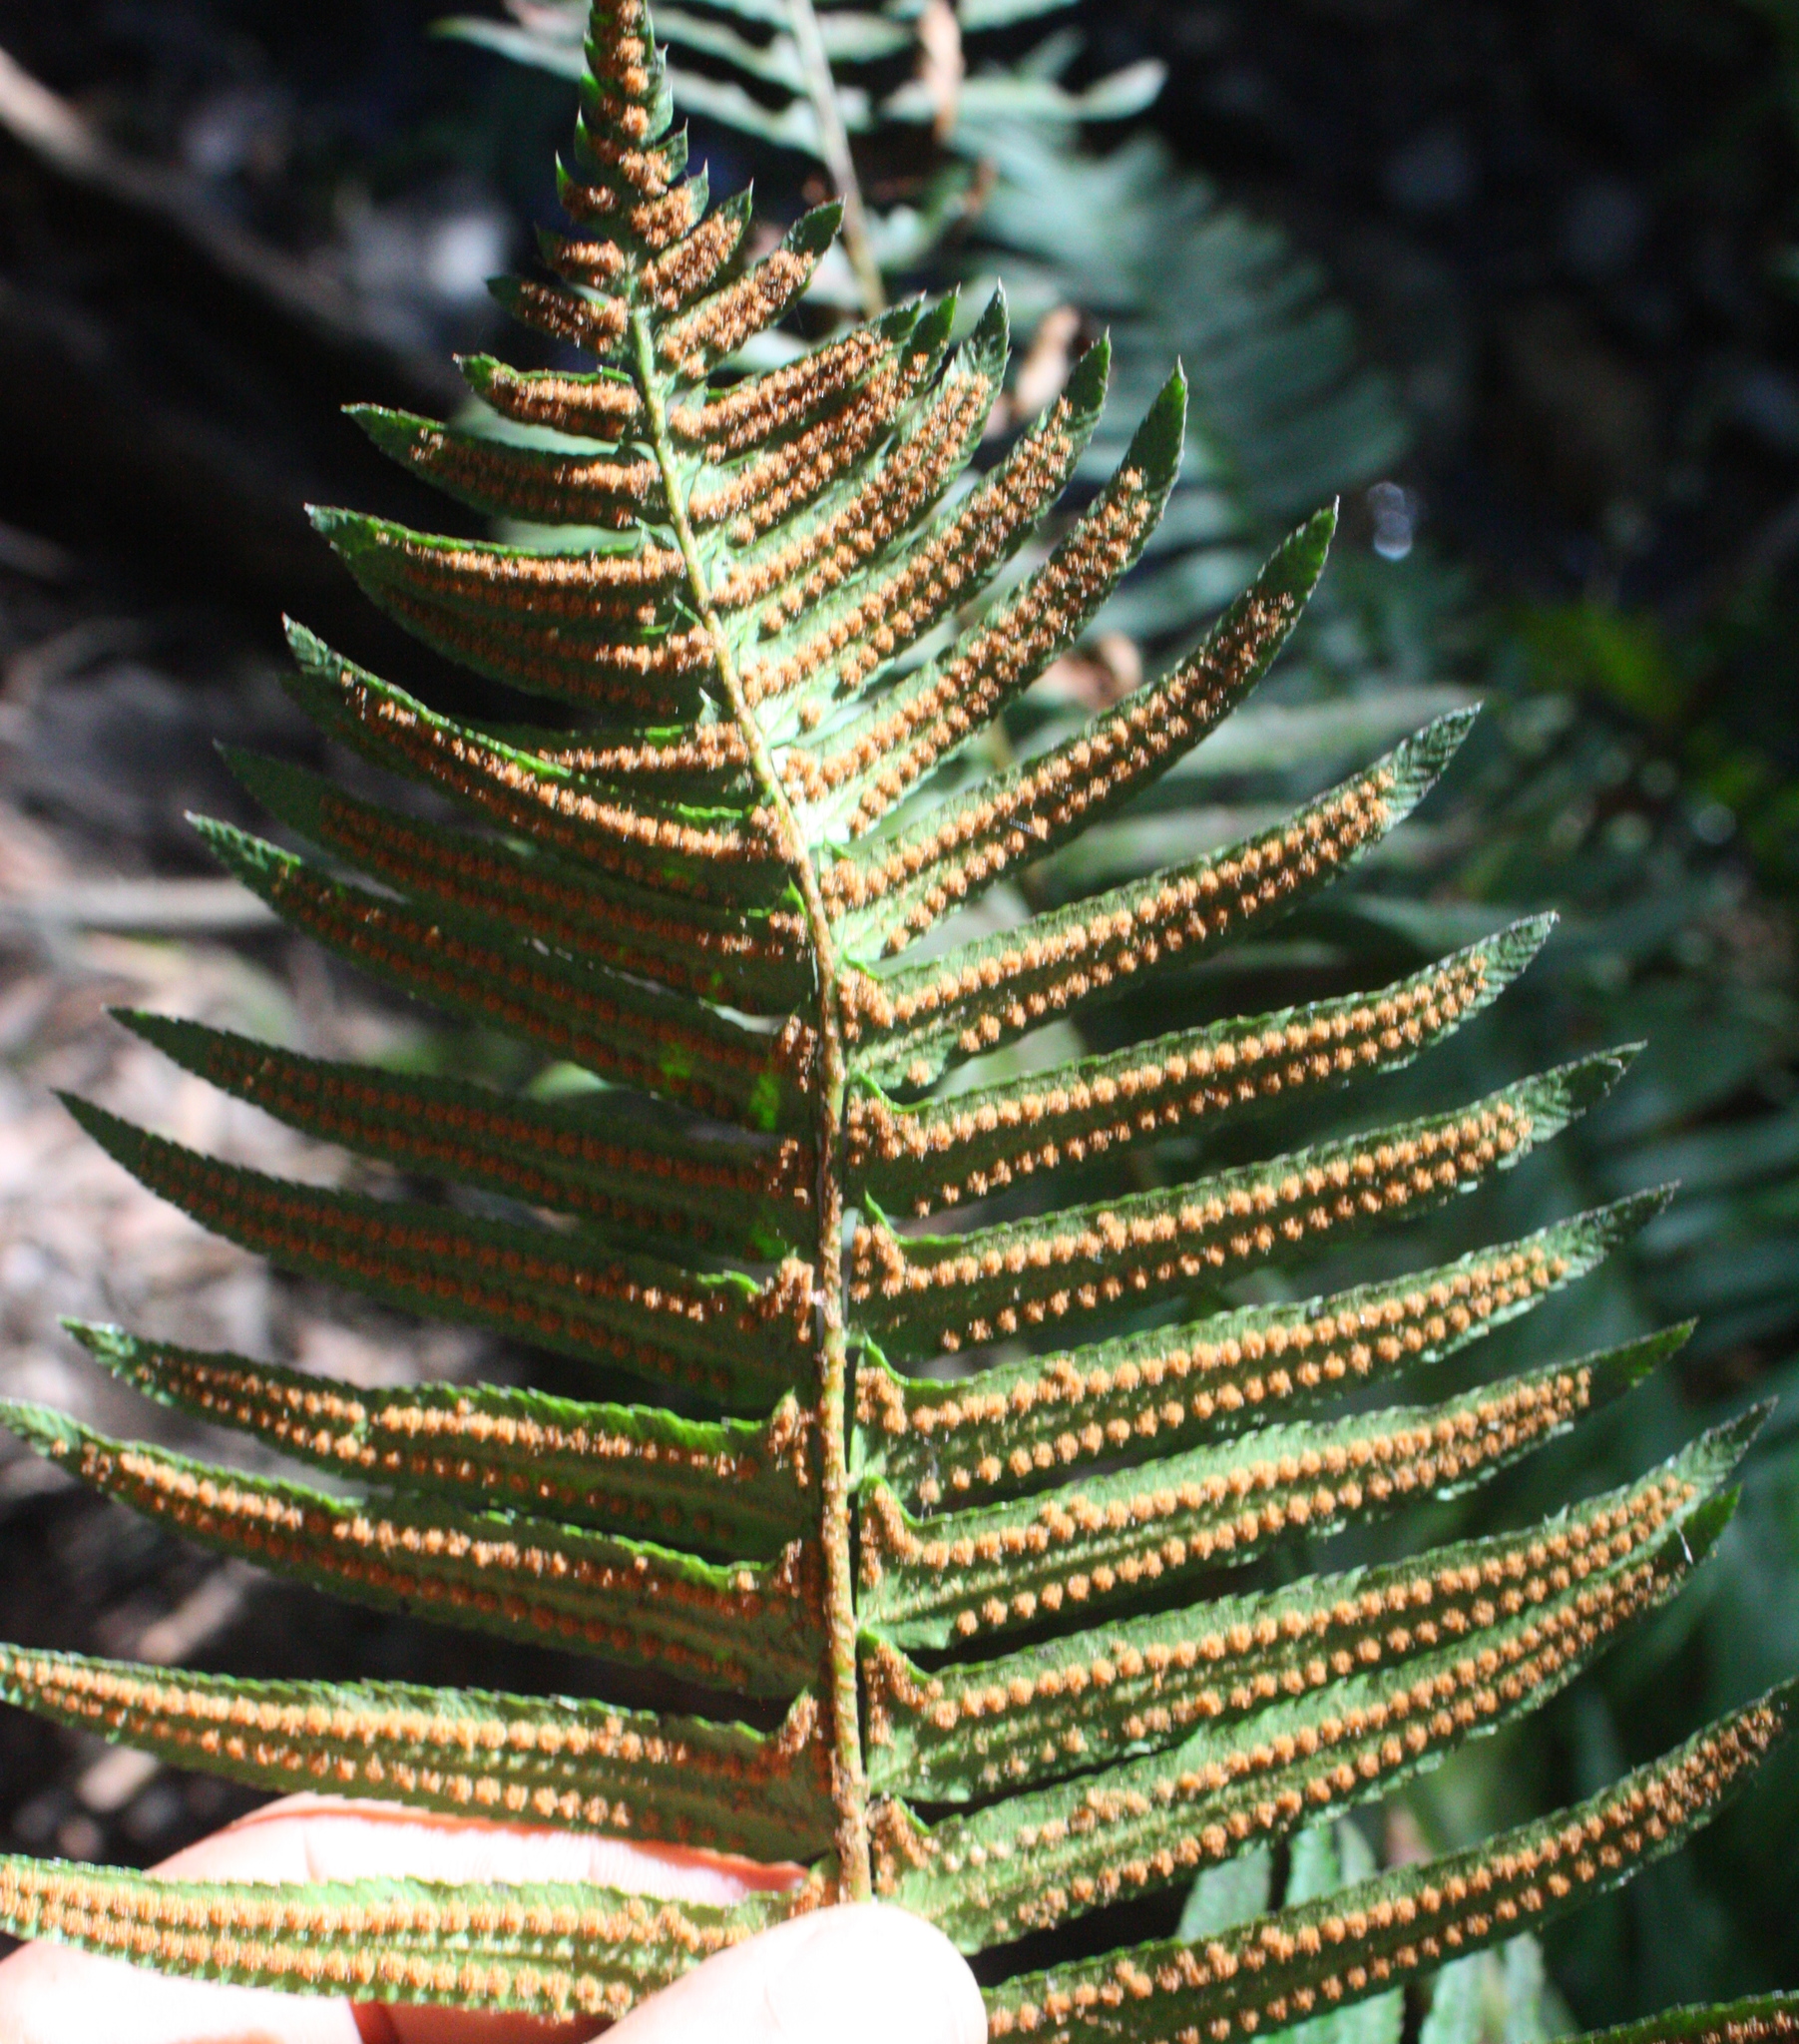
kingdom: Plantae
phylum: Tracheophyta
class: Polypodiopsida
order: Polypodiales
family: Dryopteridaceae
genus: Polystichum
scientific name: Polystichum munitum
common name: Western sword-fern
